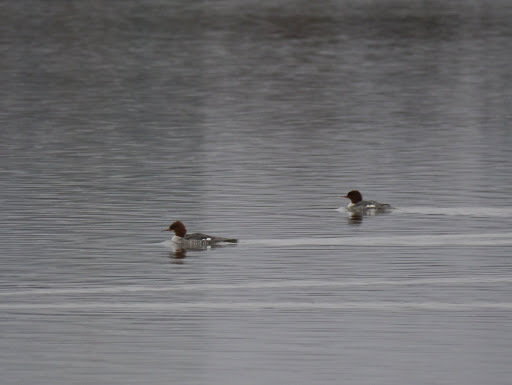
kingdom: Animalia
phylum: Chordata
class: Aves
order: Anseriformes
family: Anatidae
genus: Mergus
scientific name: Mergus merganser
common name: Common merganser
